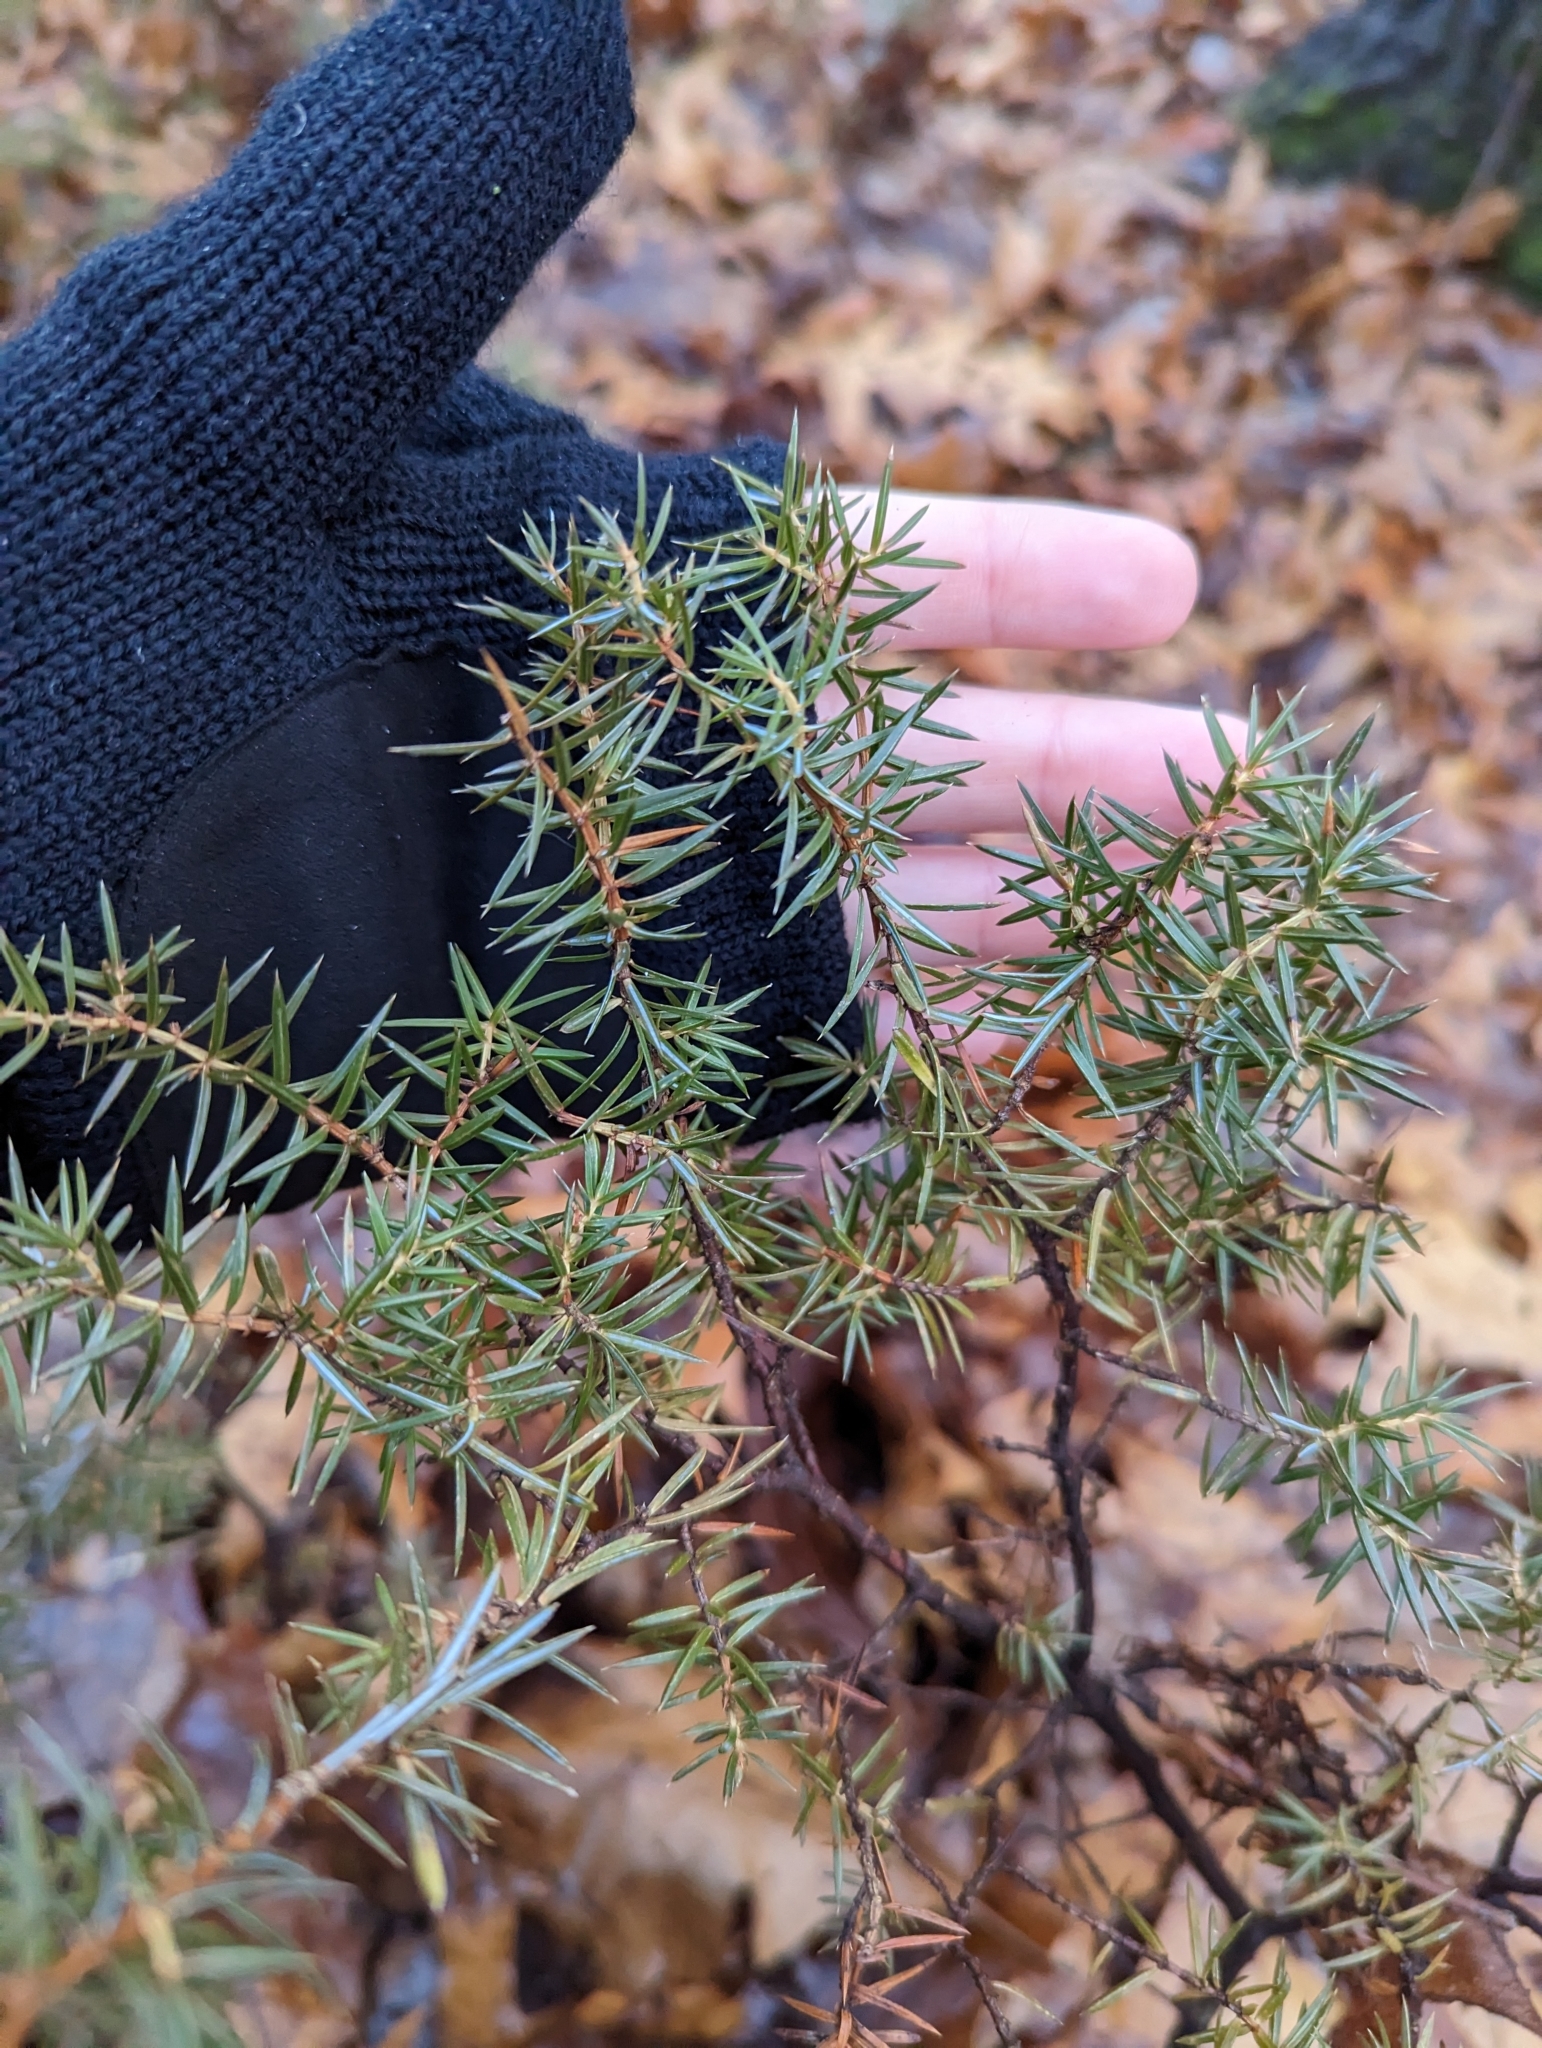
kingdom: Plantae
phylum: Tracheophyta
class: Pinopsida
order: Pinales
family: Cupressaceae
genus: Juniperus
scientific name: Juniperus communis
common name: Common juniper
